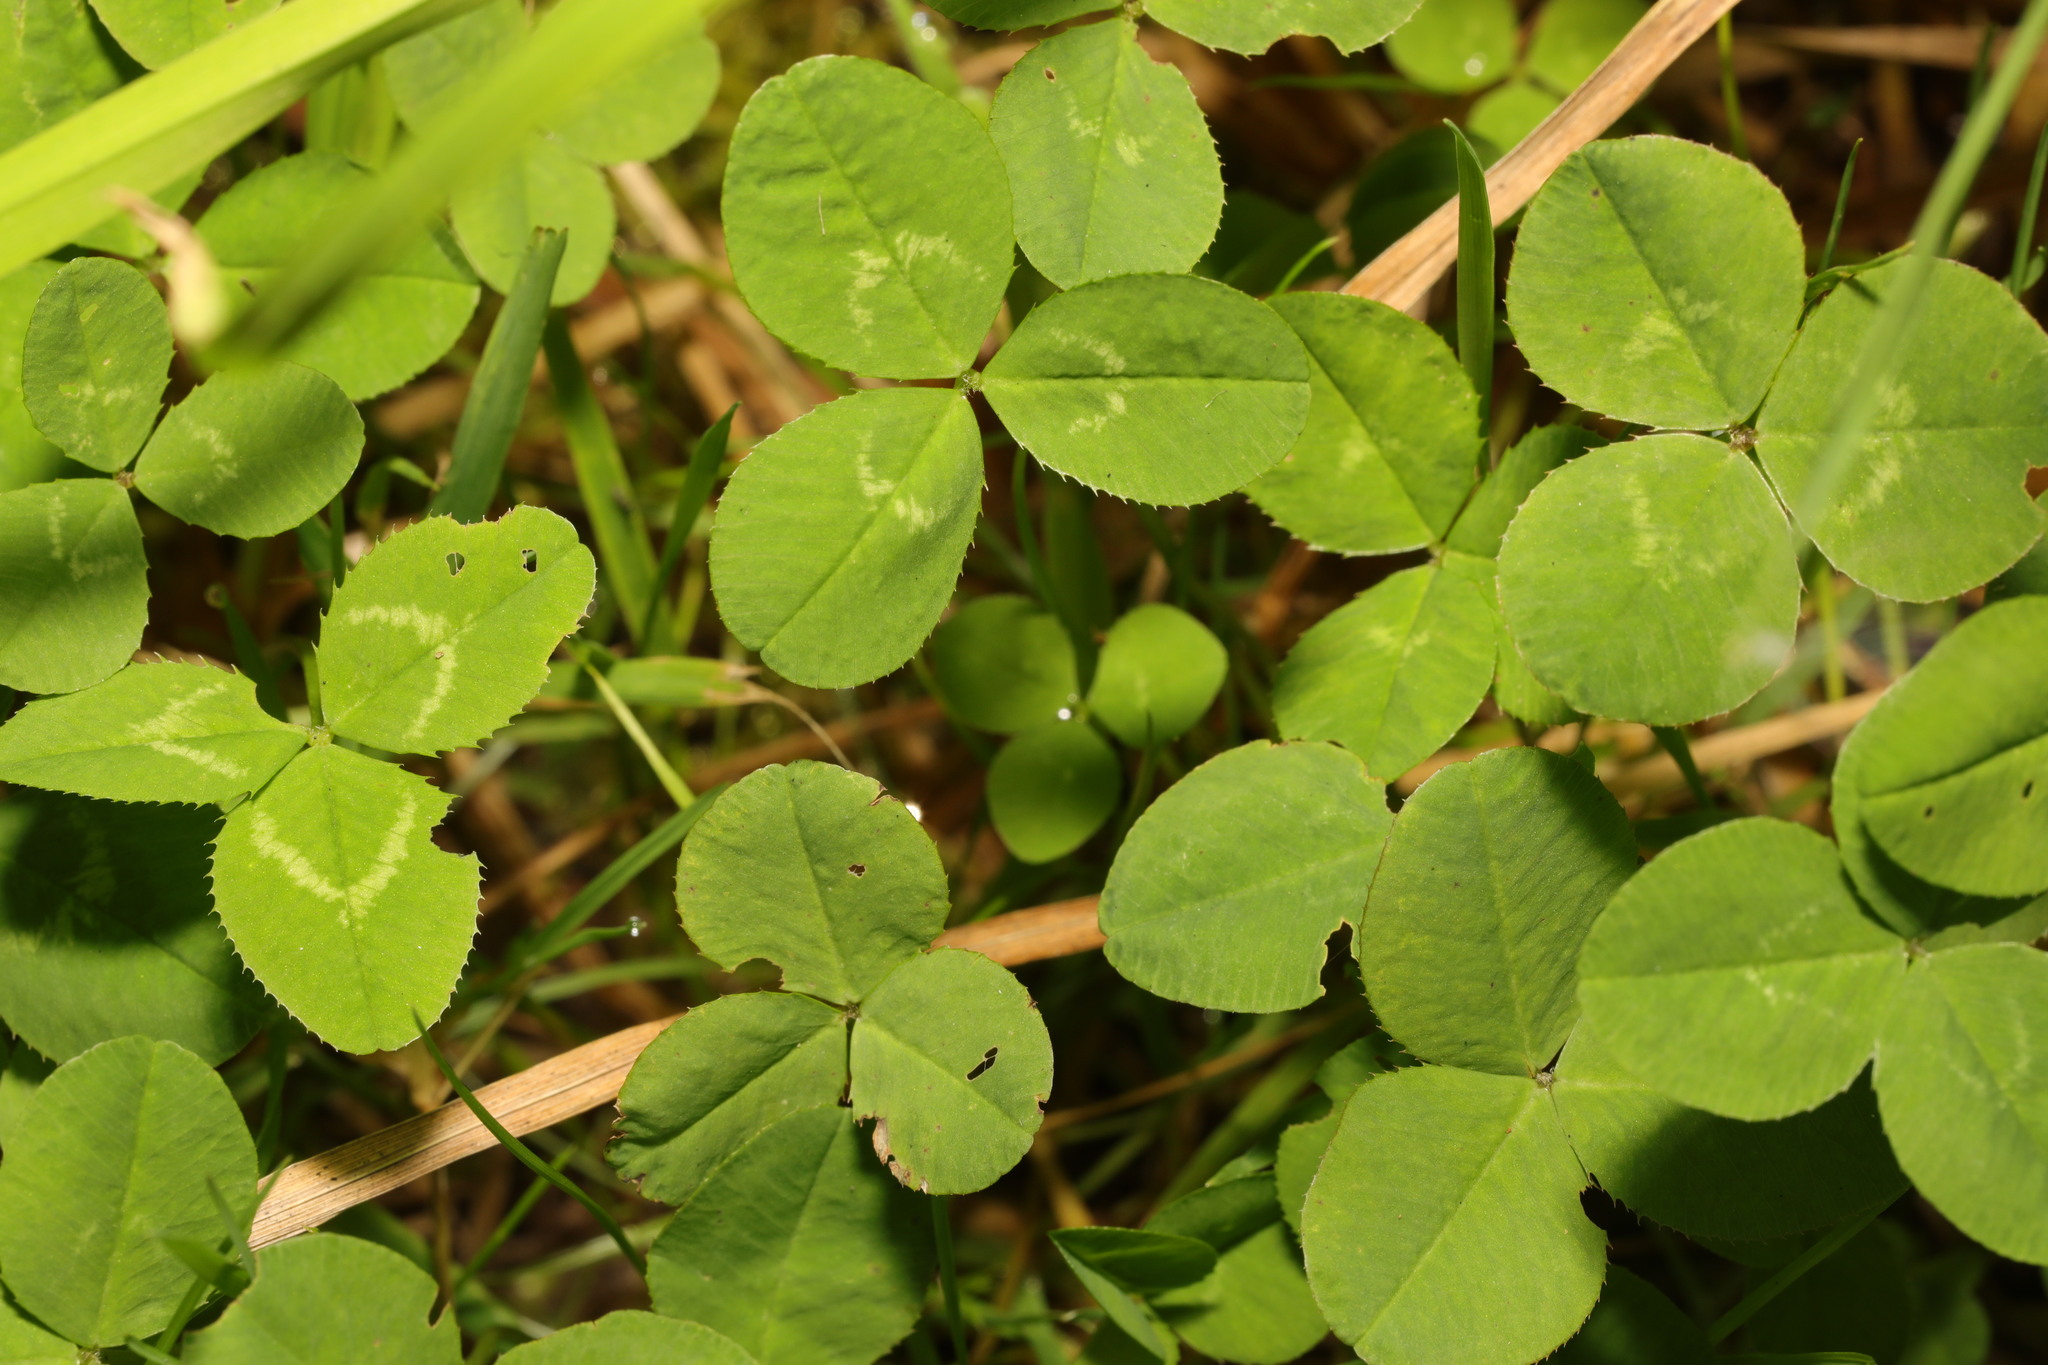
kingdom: Plantae
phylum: Tracheophyta
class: Magnoliopsida
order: Fabales
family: Fabaceae
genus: Trifolium
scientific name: Trifolium repens
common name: White clover
